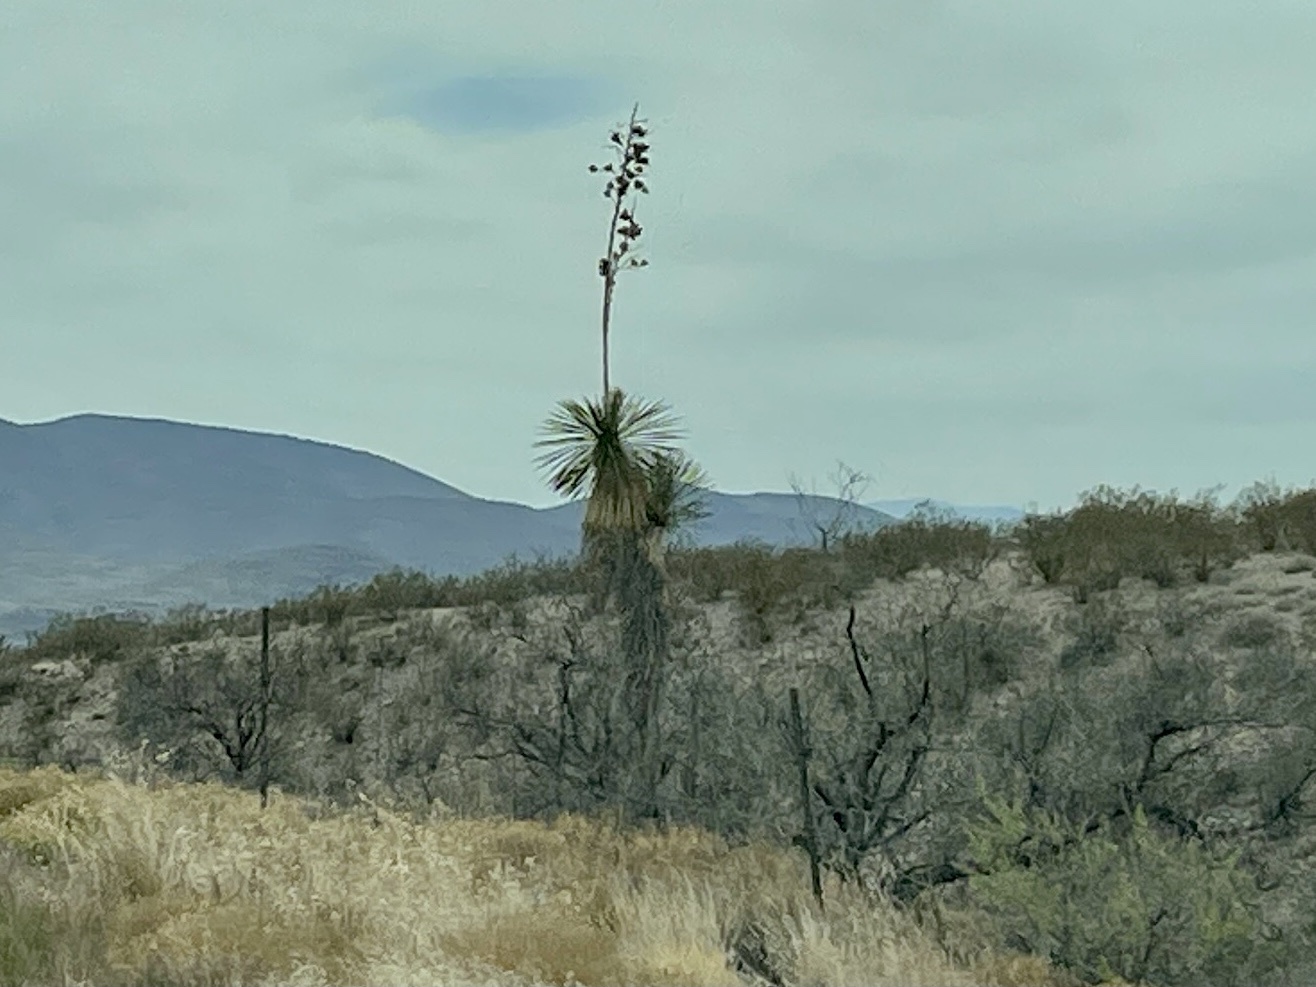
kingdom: Plantae
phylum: Tracheophyta
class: Liliopsida
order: Asparagales
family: Asparagaceae
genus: Yucca
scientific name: Yucca elata
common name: Palmella
